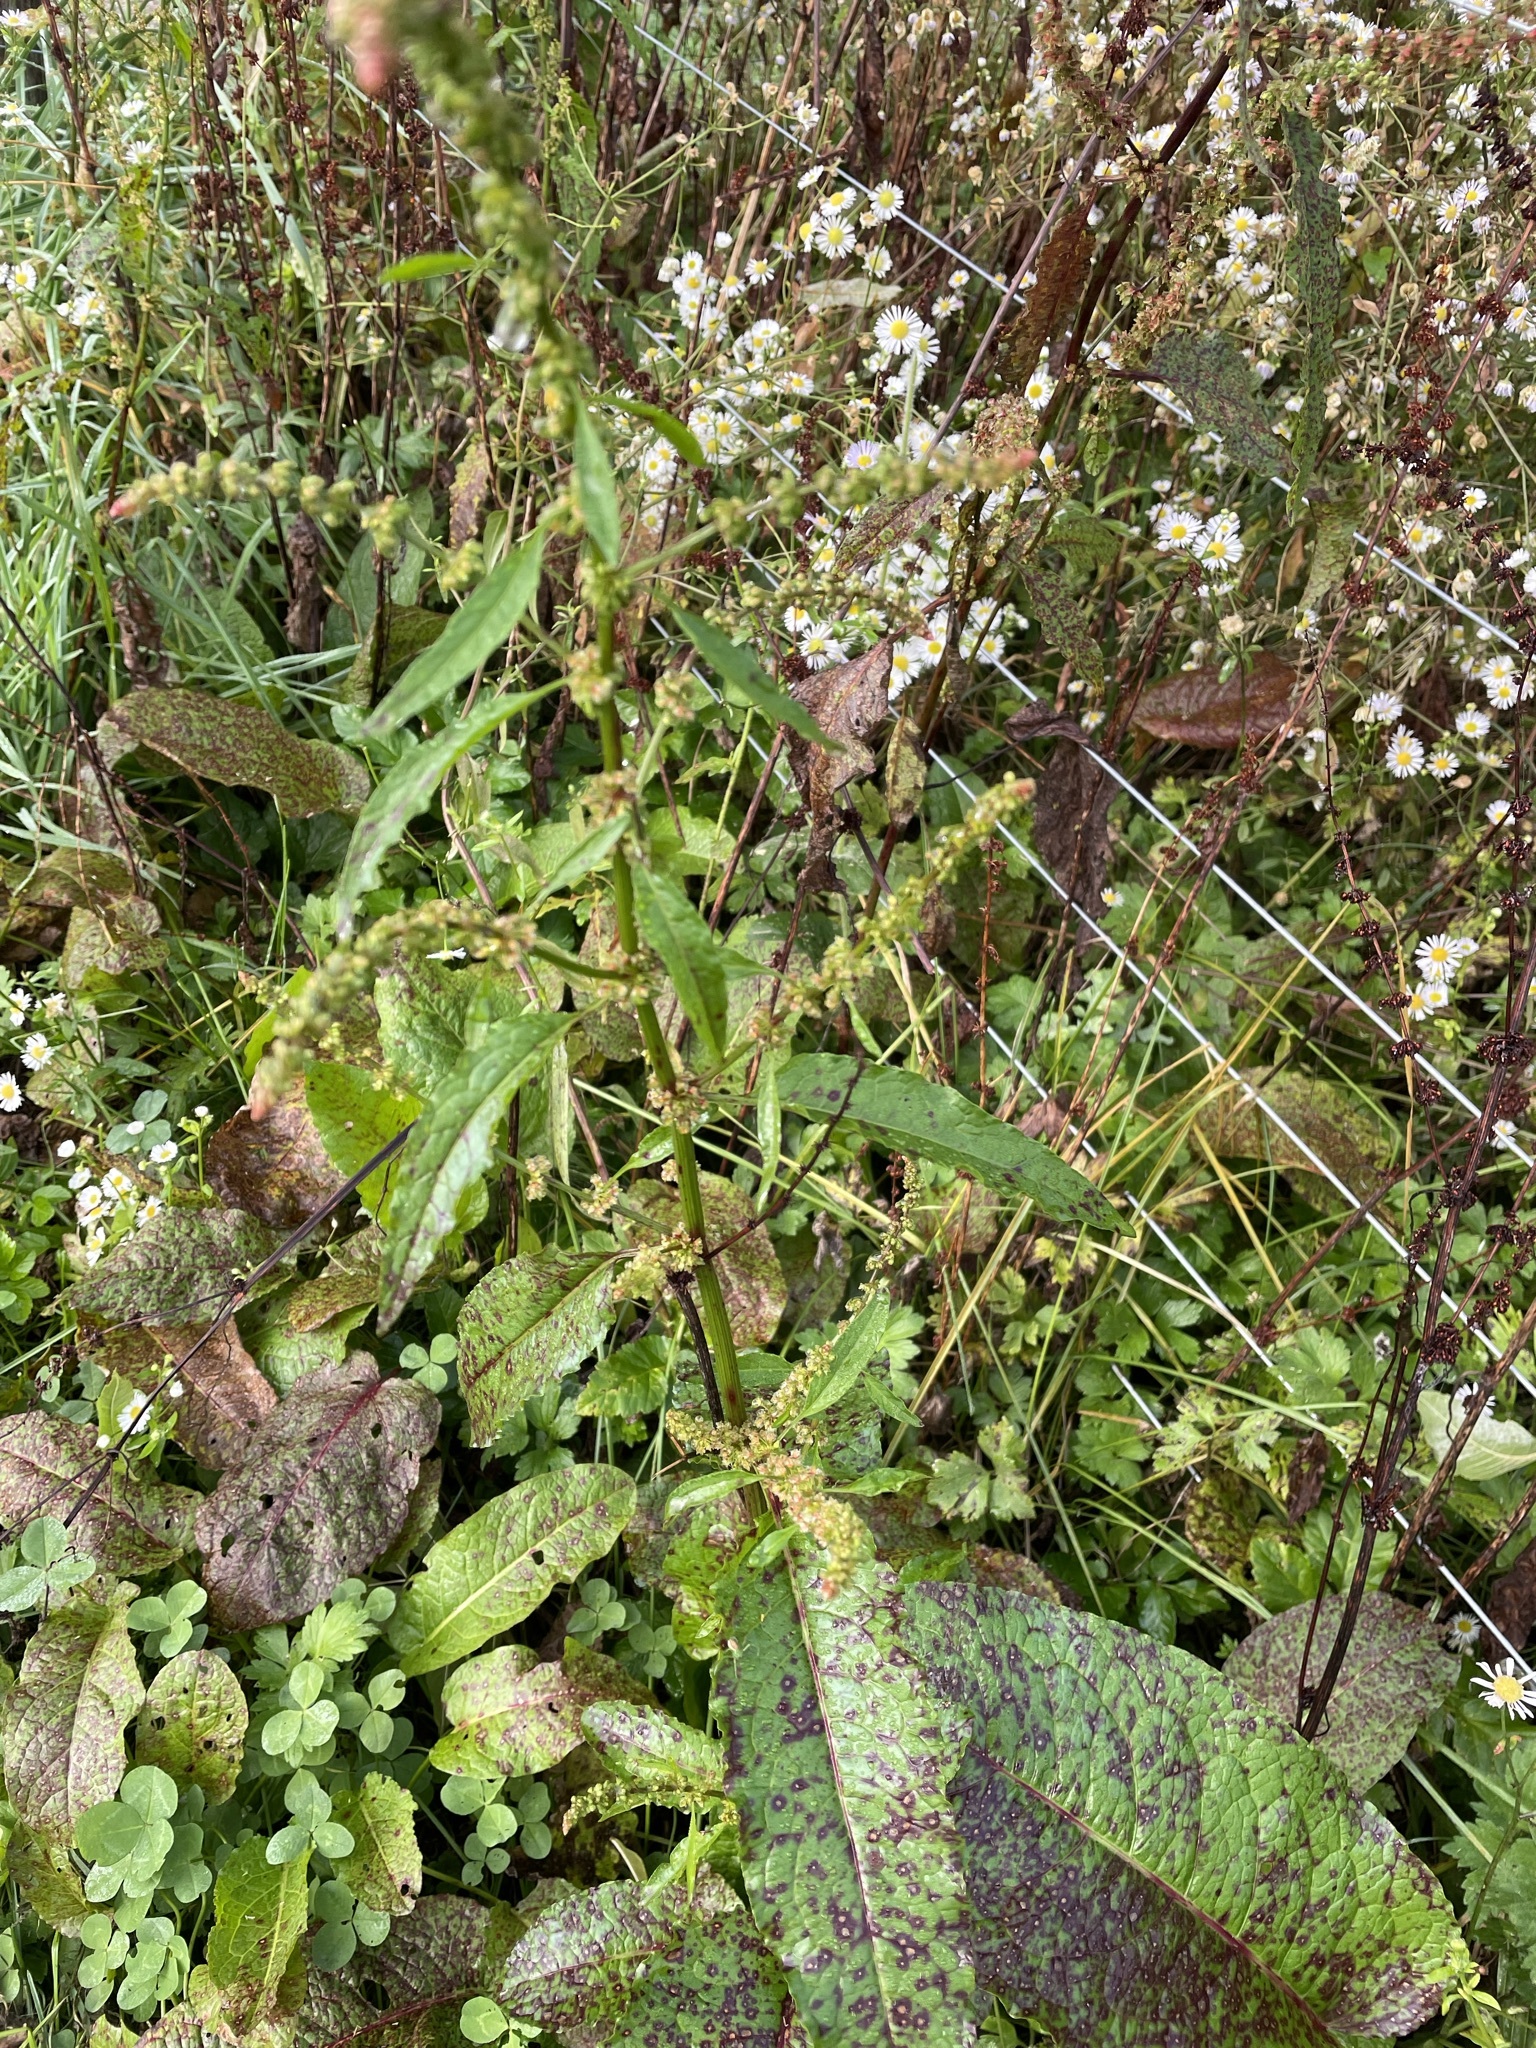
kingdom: Plantae
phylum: Tracheophyta
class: Magnoliopsida
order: Caryophyllales
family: Polygonaceae
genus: Rumex
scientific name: Rumex obtusifolius
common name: Bitter dock
